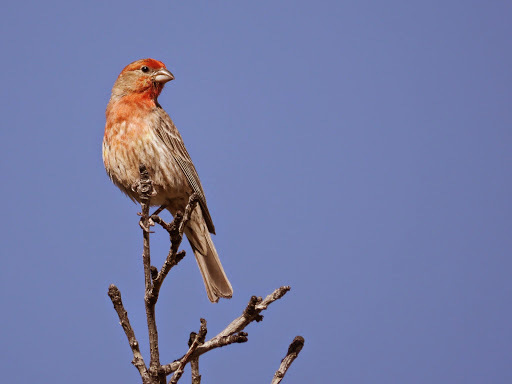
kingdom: Animalia
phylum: Chordata
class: Aves
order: Passeriformes
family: Fringillidae
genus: Haemorhous
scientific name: Haemorhous mexicanus
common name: House finch
